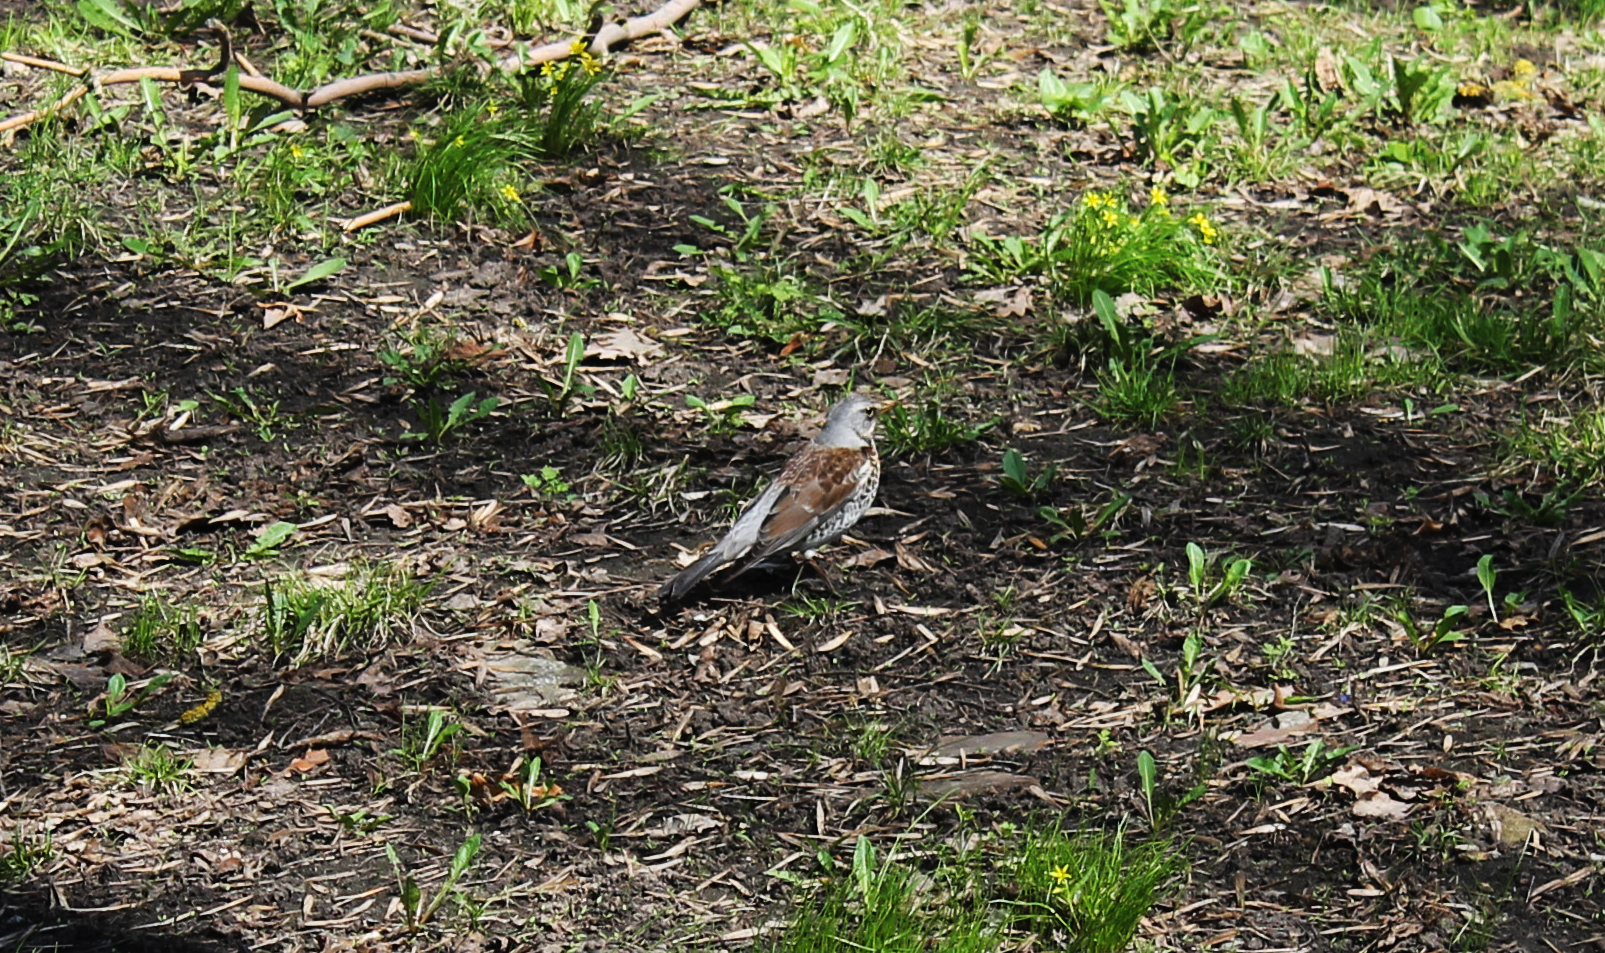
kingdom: Animalia
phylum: Chordata
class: Aves
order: Passeriformes
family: Turdidae
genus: Turdus
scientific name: Turdus pilaris
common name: Fieldfare
